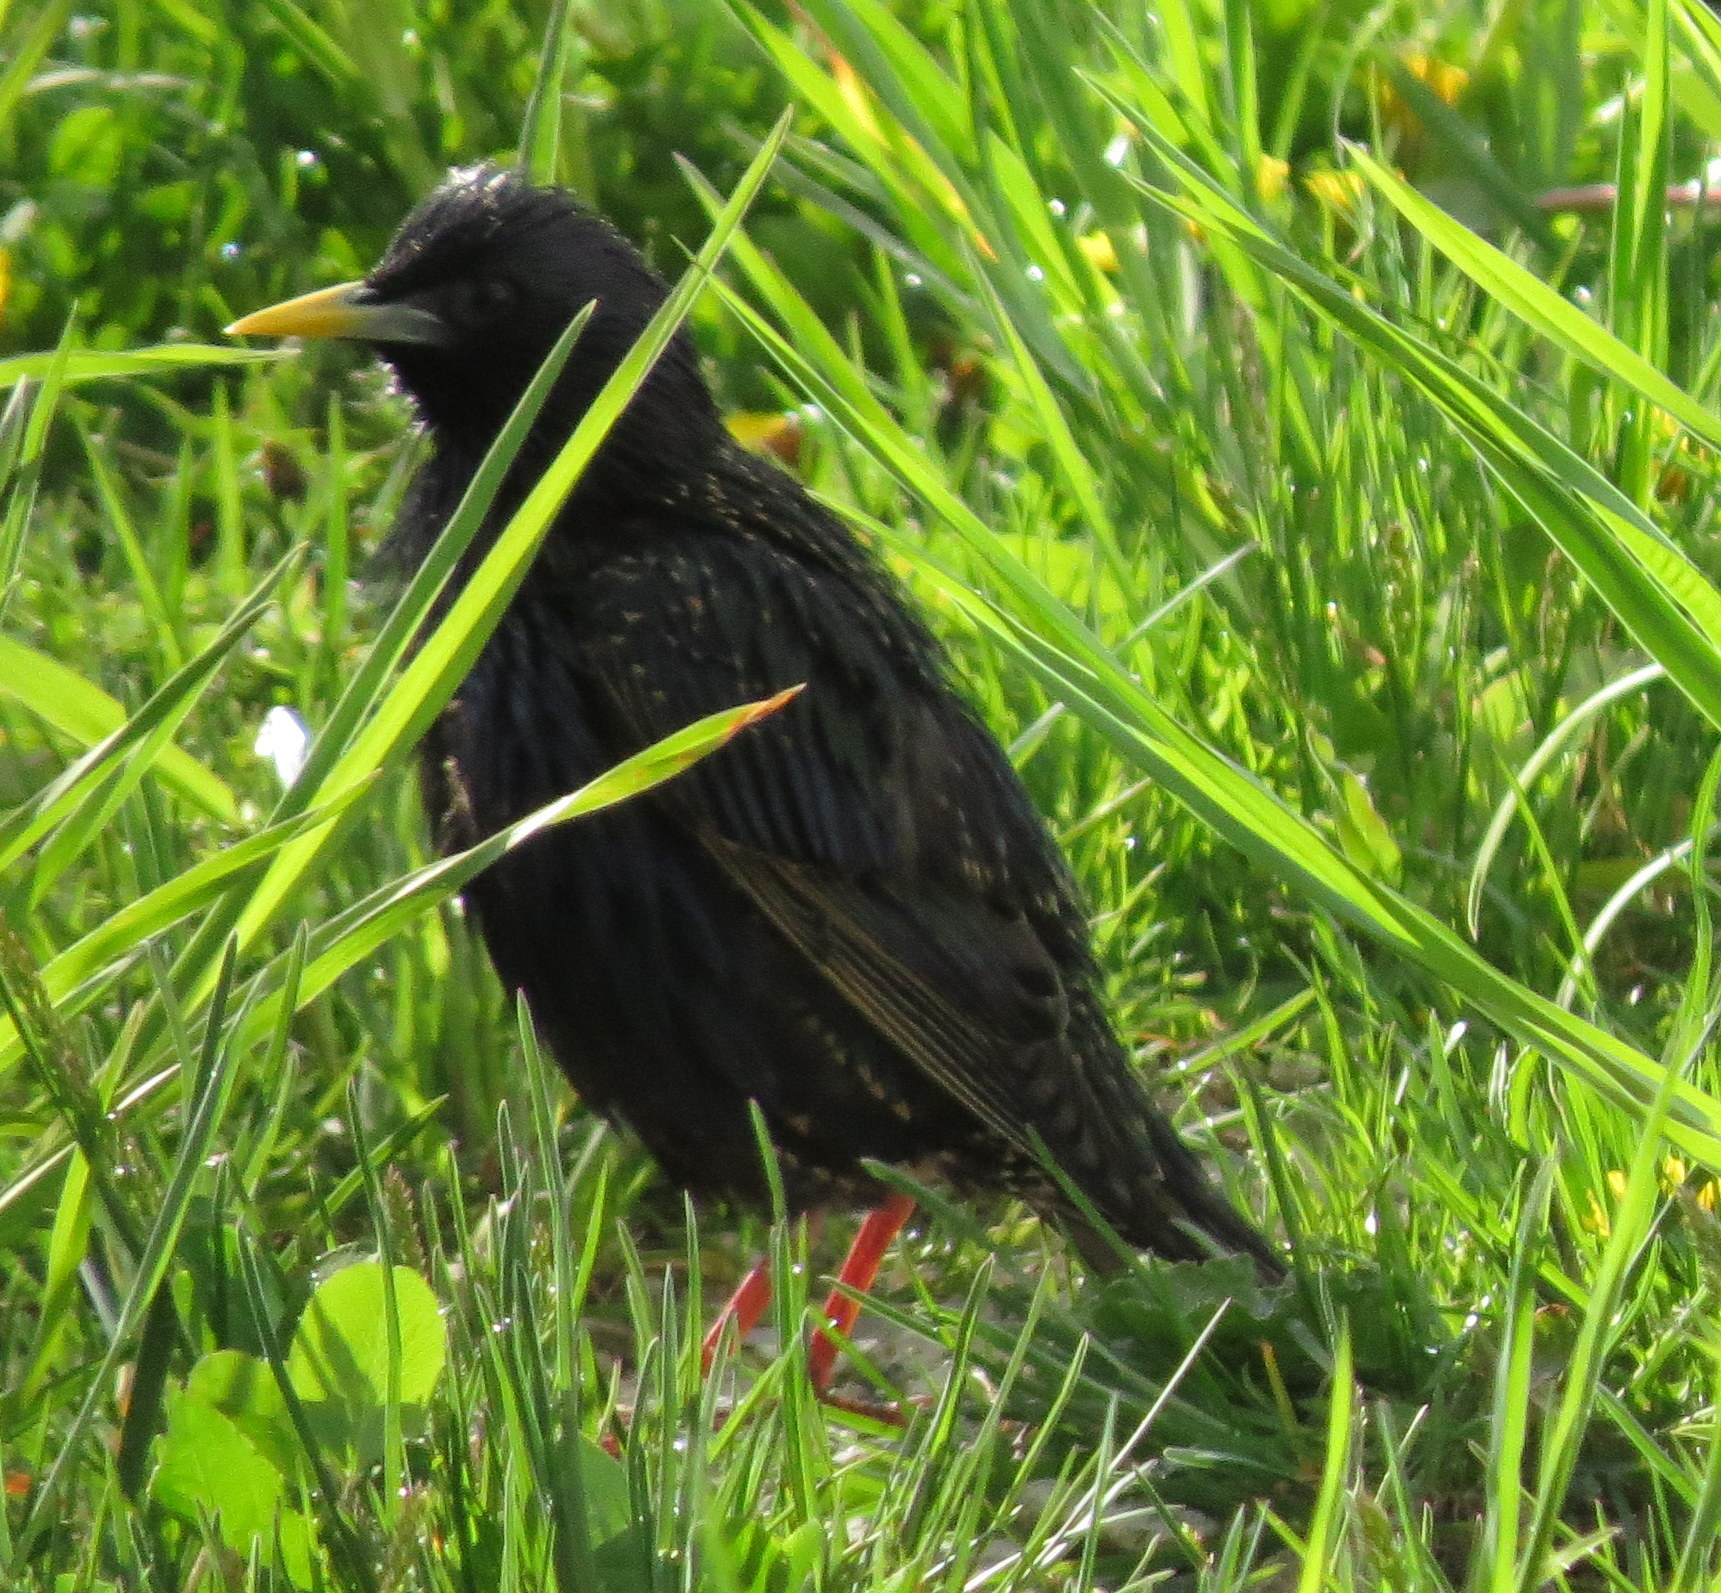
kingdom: Animalia
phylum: Chordata
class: Aves
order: Passeriformes
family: Sturnidae
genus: Sturnus
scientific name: Sturnus vulgaris
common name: Common starling
